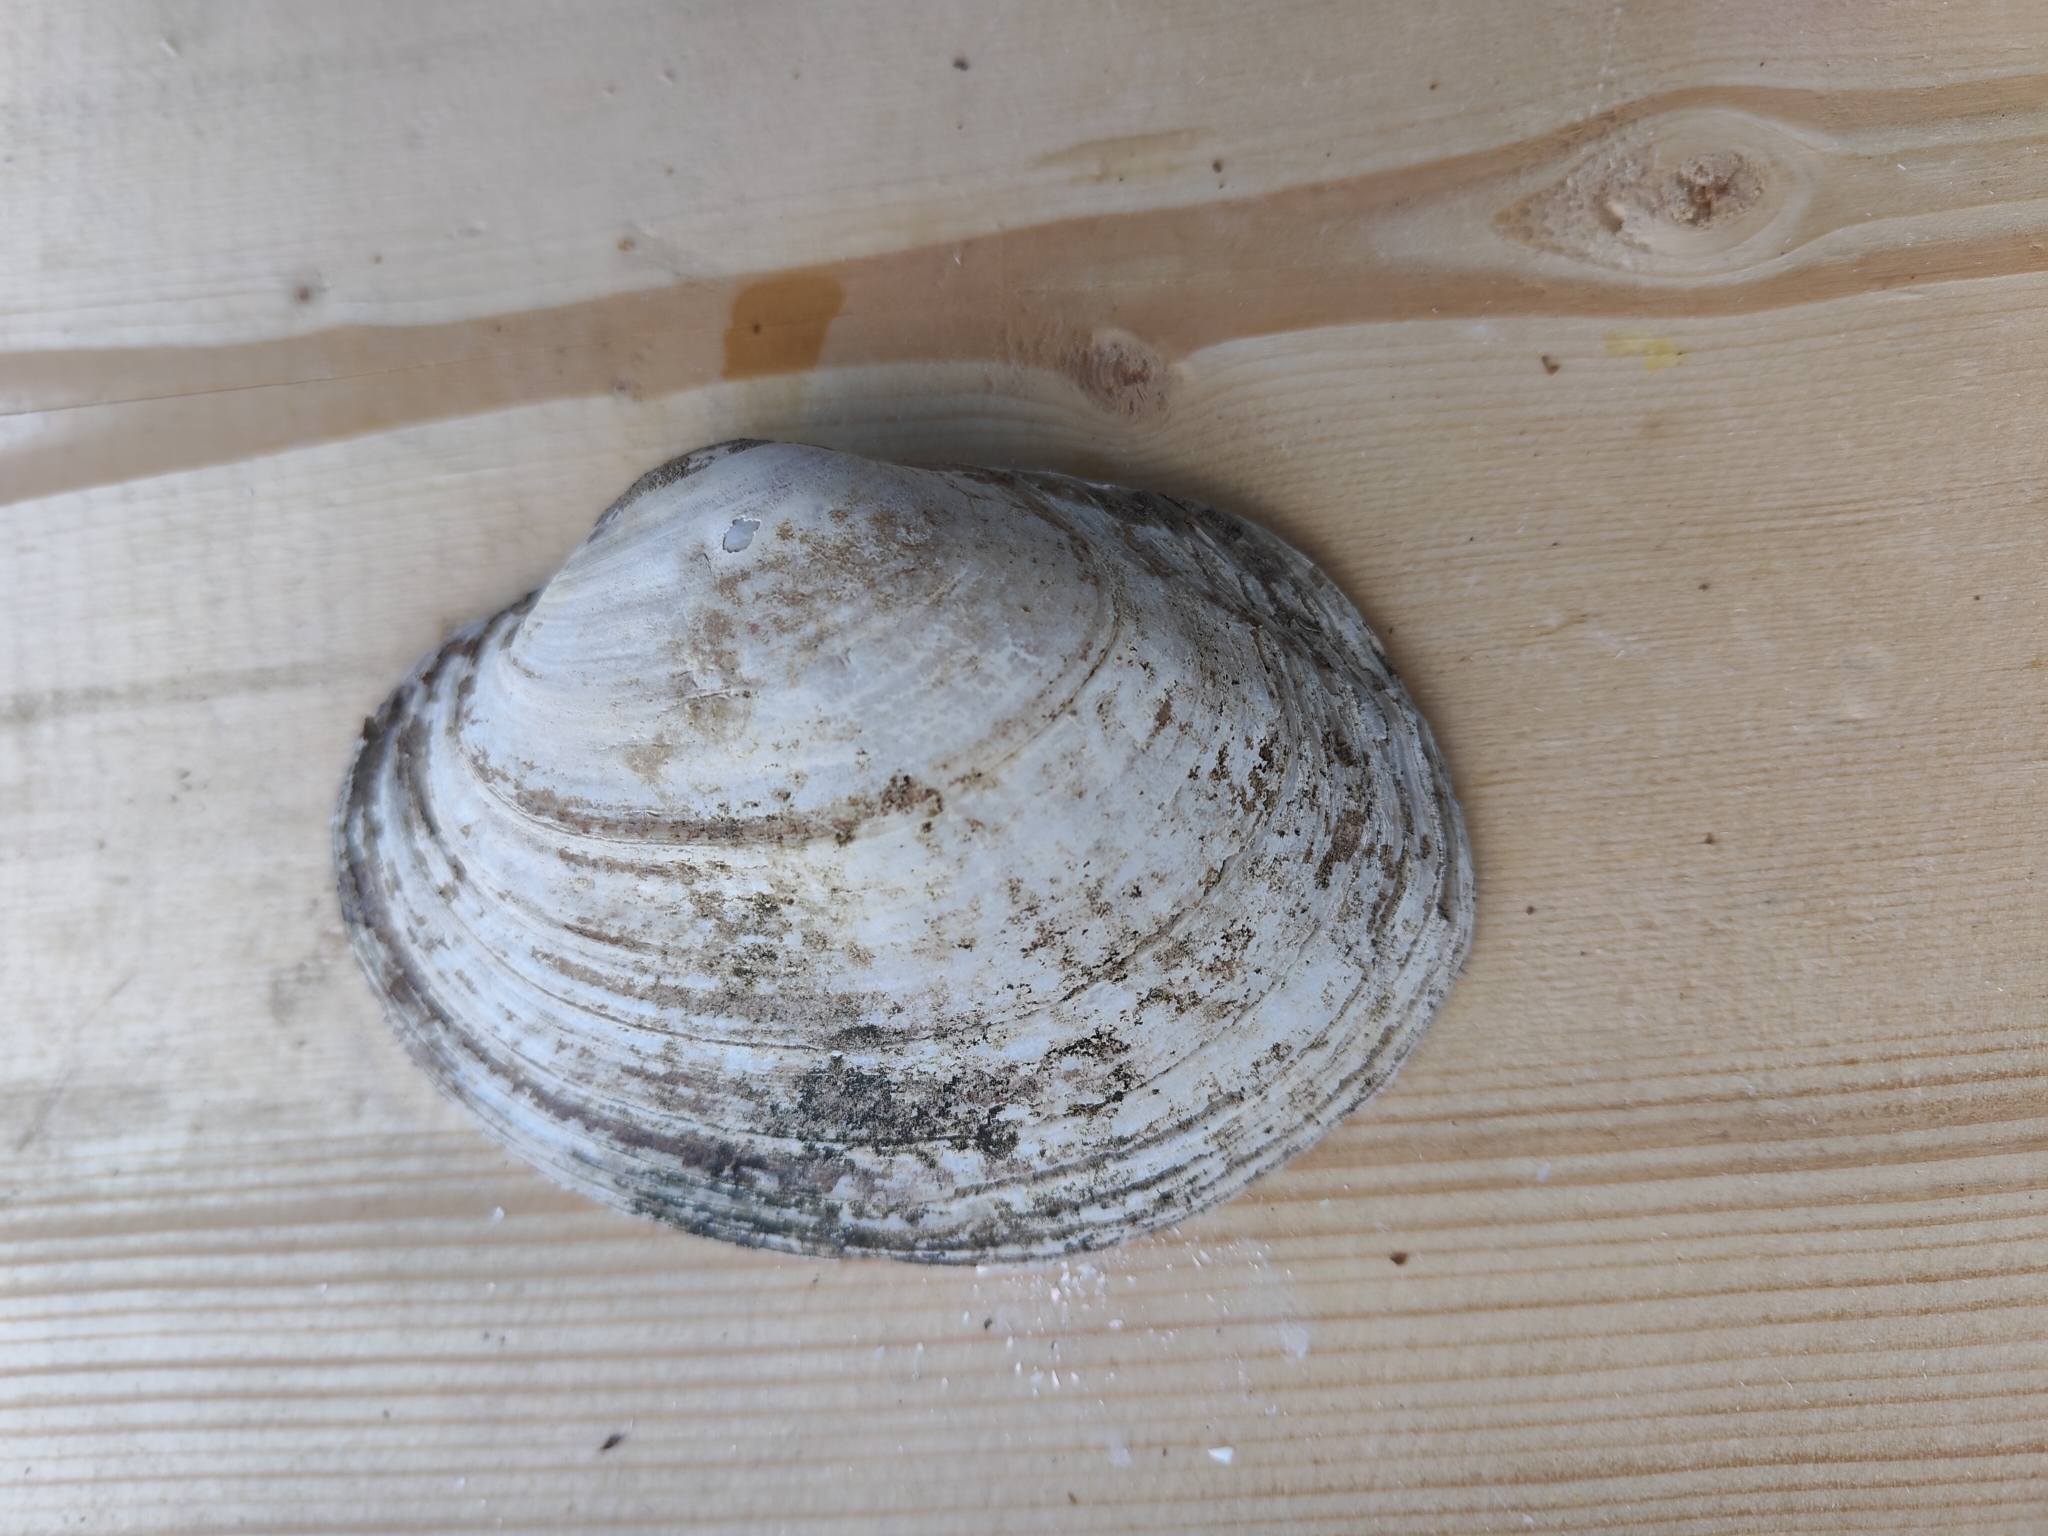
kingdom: Animalia
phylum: Mollusca
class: Bivalvia
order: Unionida
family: Unionidae
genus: Lampsilis
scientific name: Lampsilis cardium
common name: Plain pocketbook
